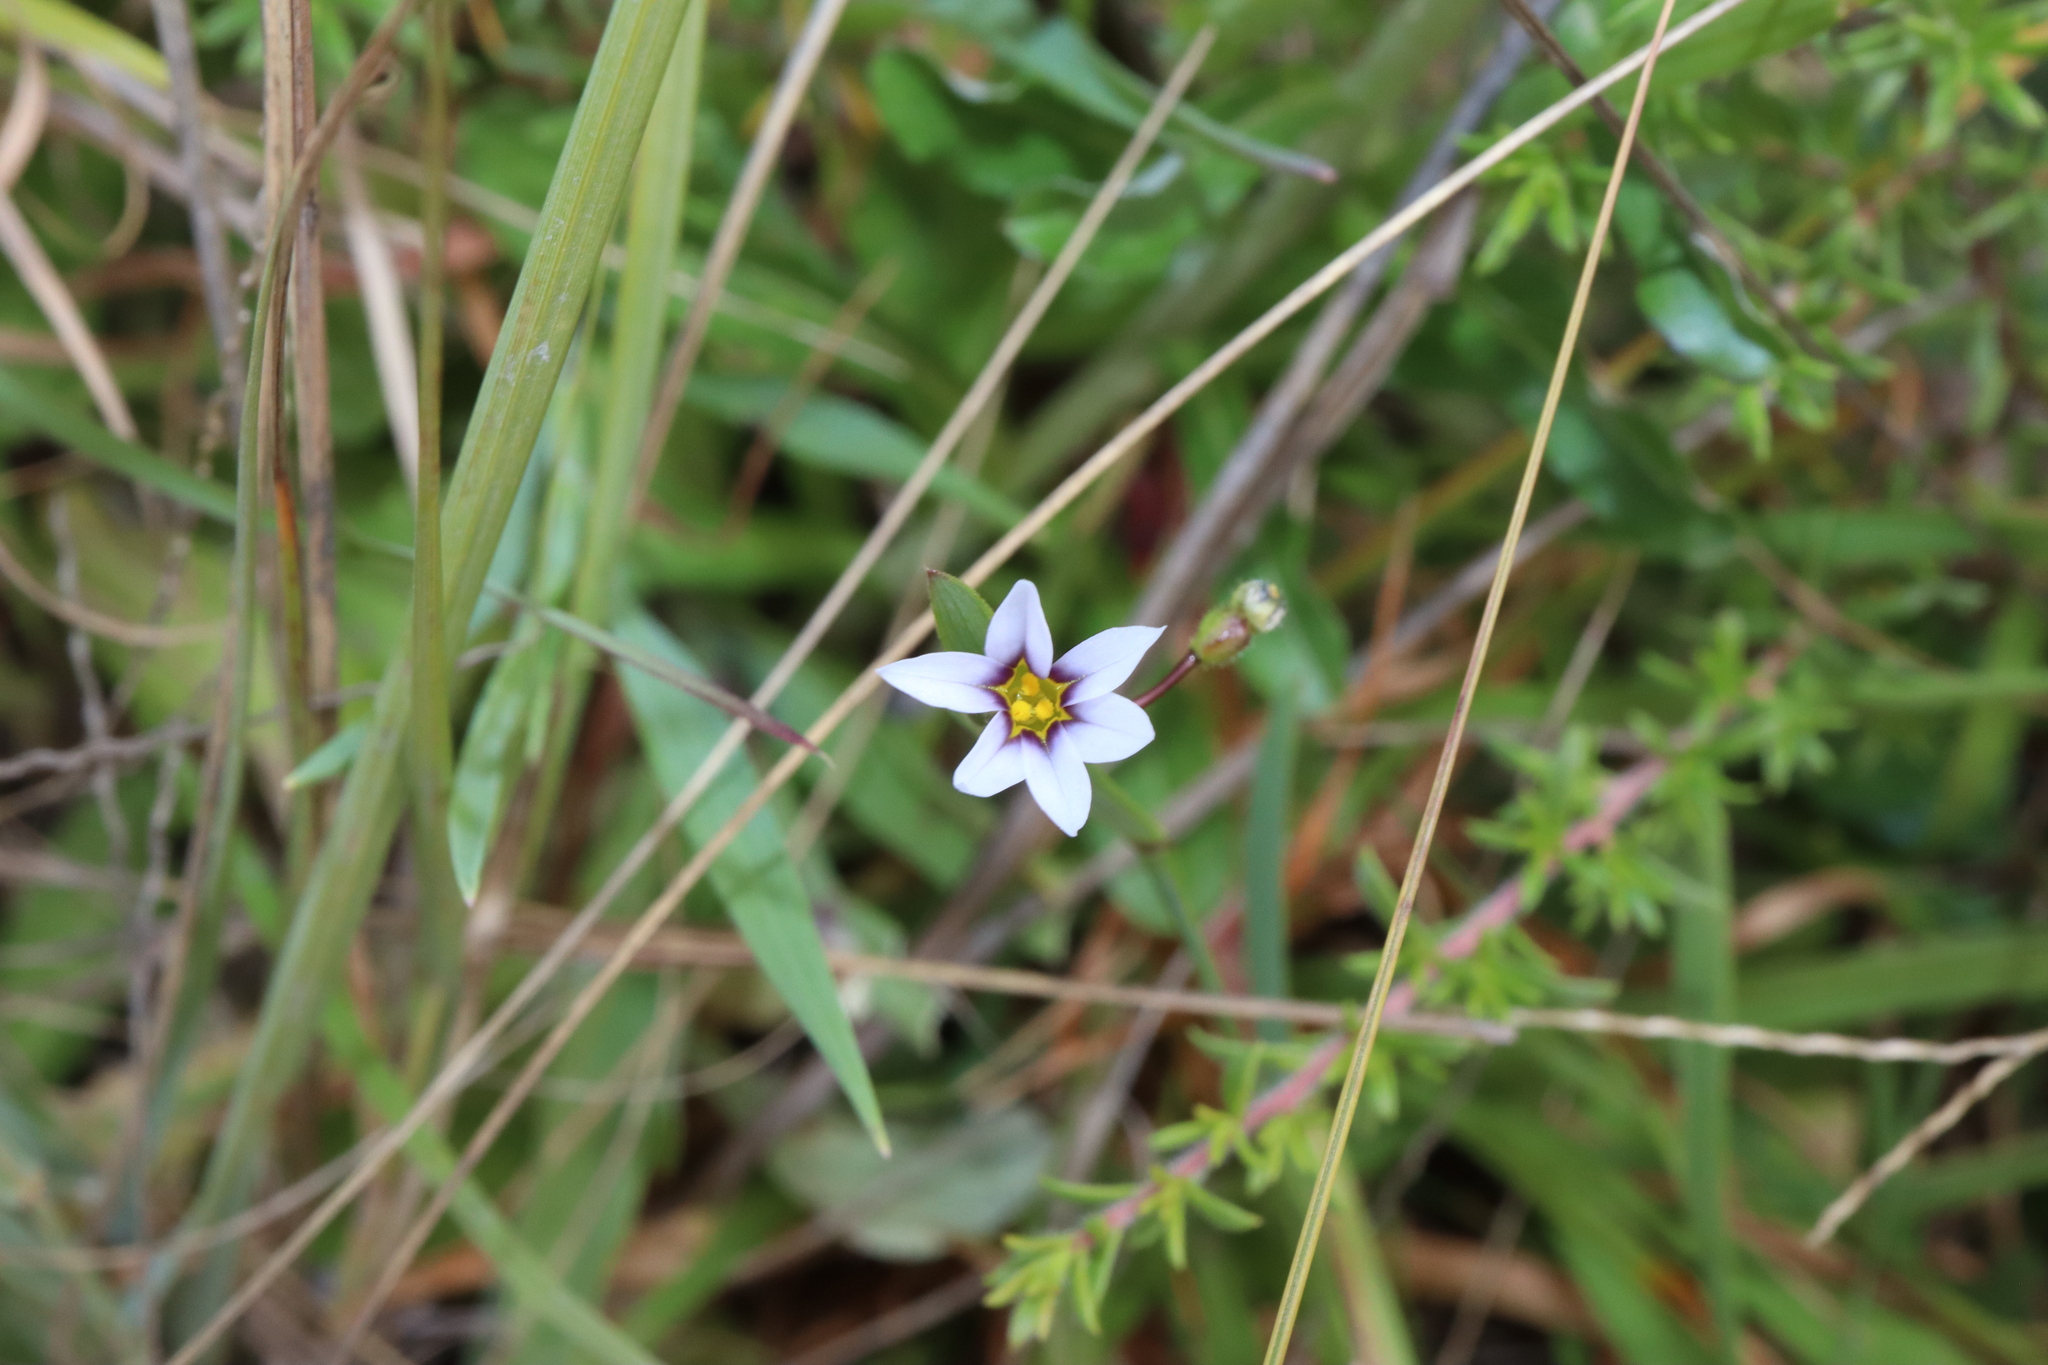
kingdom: Plantae
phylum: Tracheophyta
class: Liliopsida
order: Asparagales
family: Iridaceae
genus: Sisyrinchium
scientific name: Sisyrinchium micranthum
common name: Bermuda pigroot
